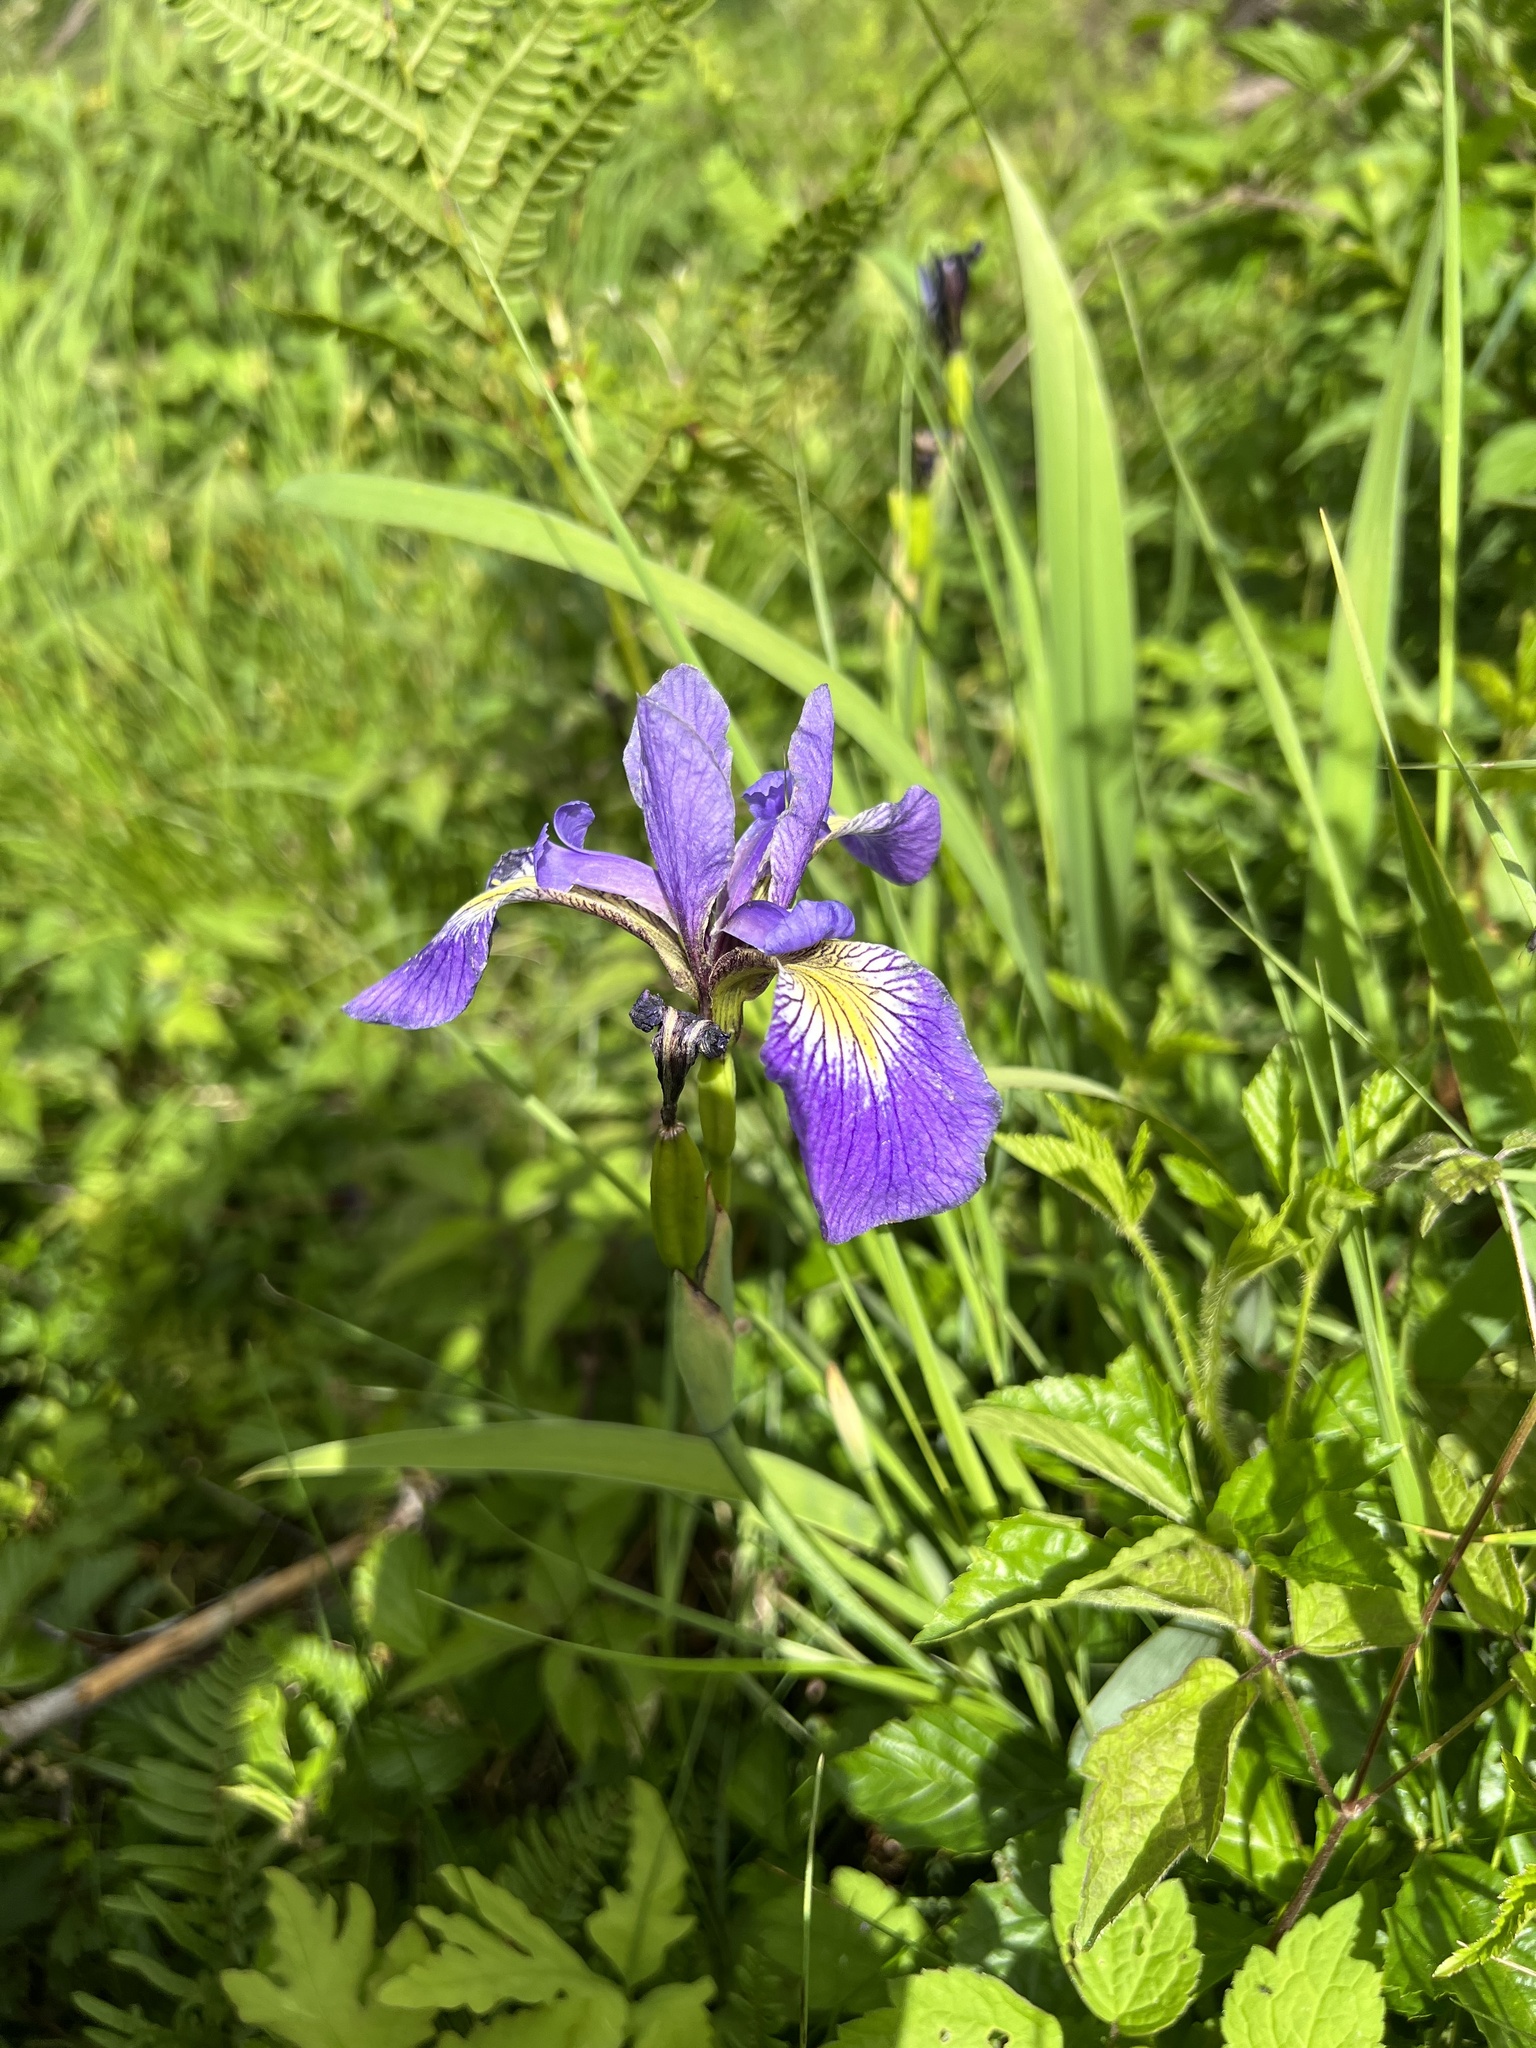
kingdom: Plantae
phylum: Tracheophyta
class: Liliopsida
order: Asparagales
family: Iridaceae
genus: Iris
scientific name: Iris versicolor
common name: Purple iris
